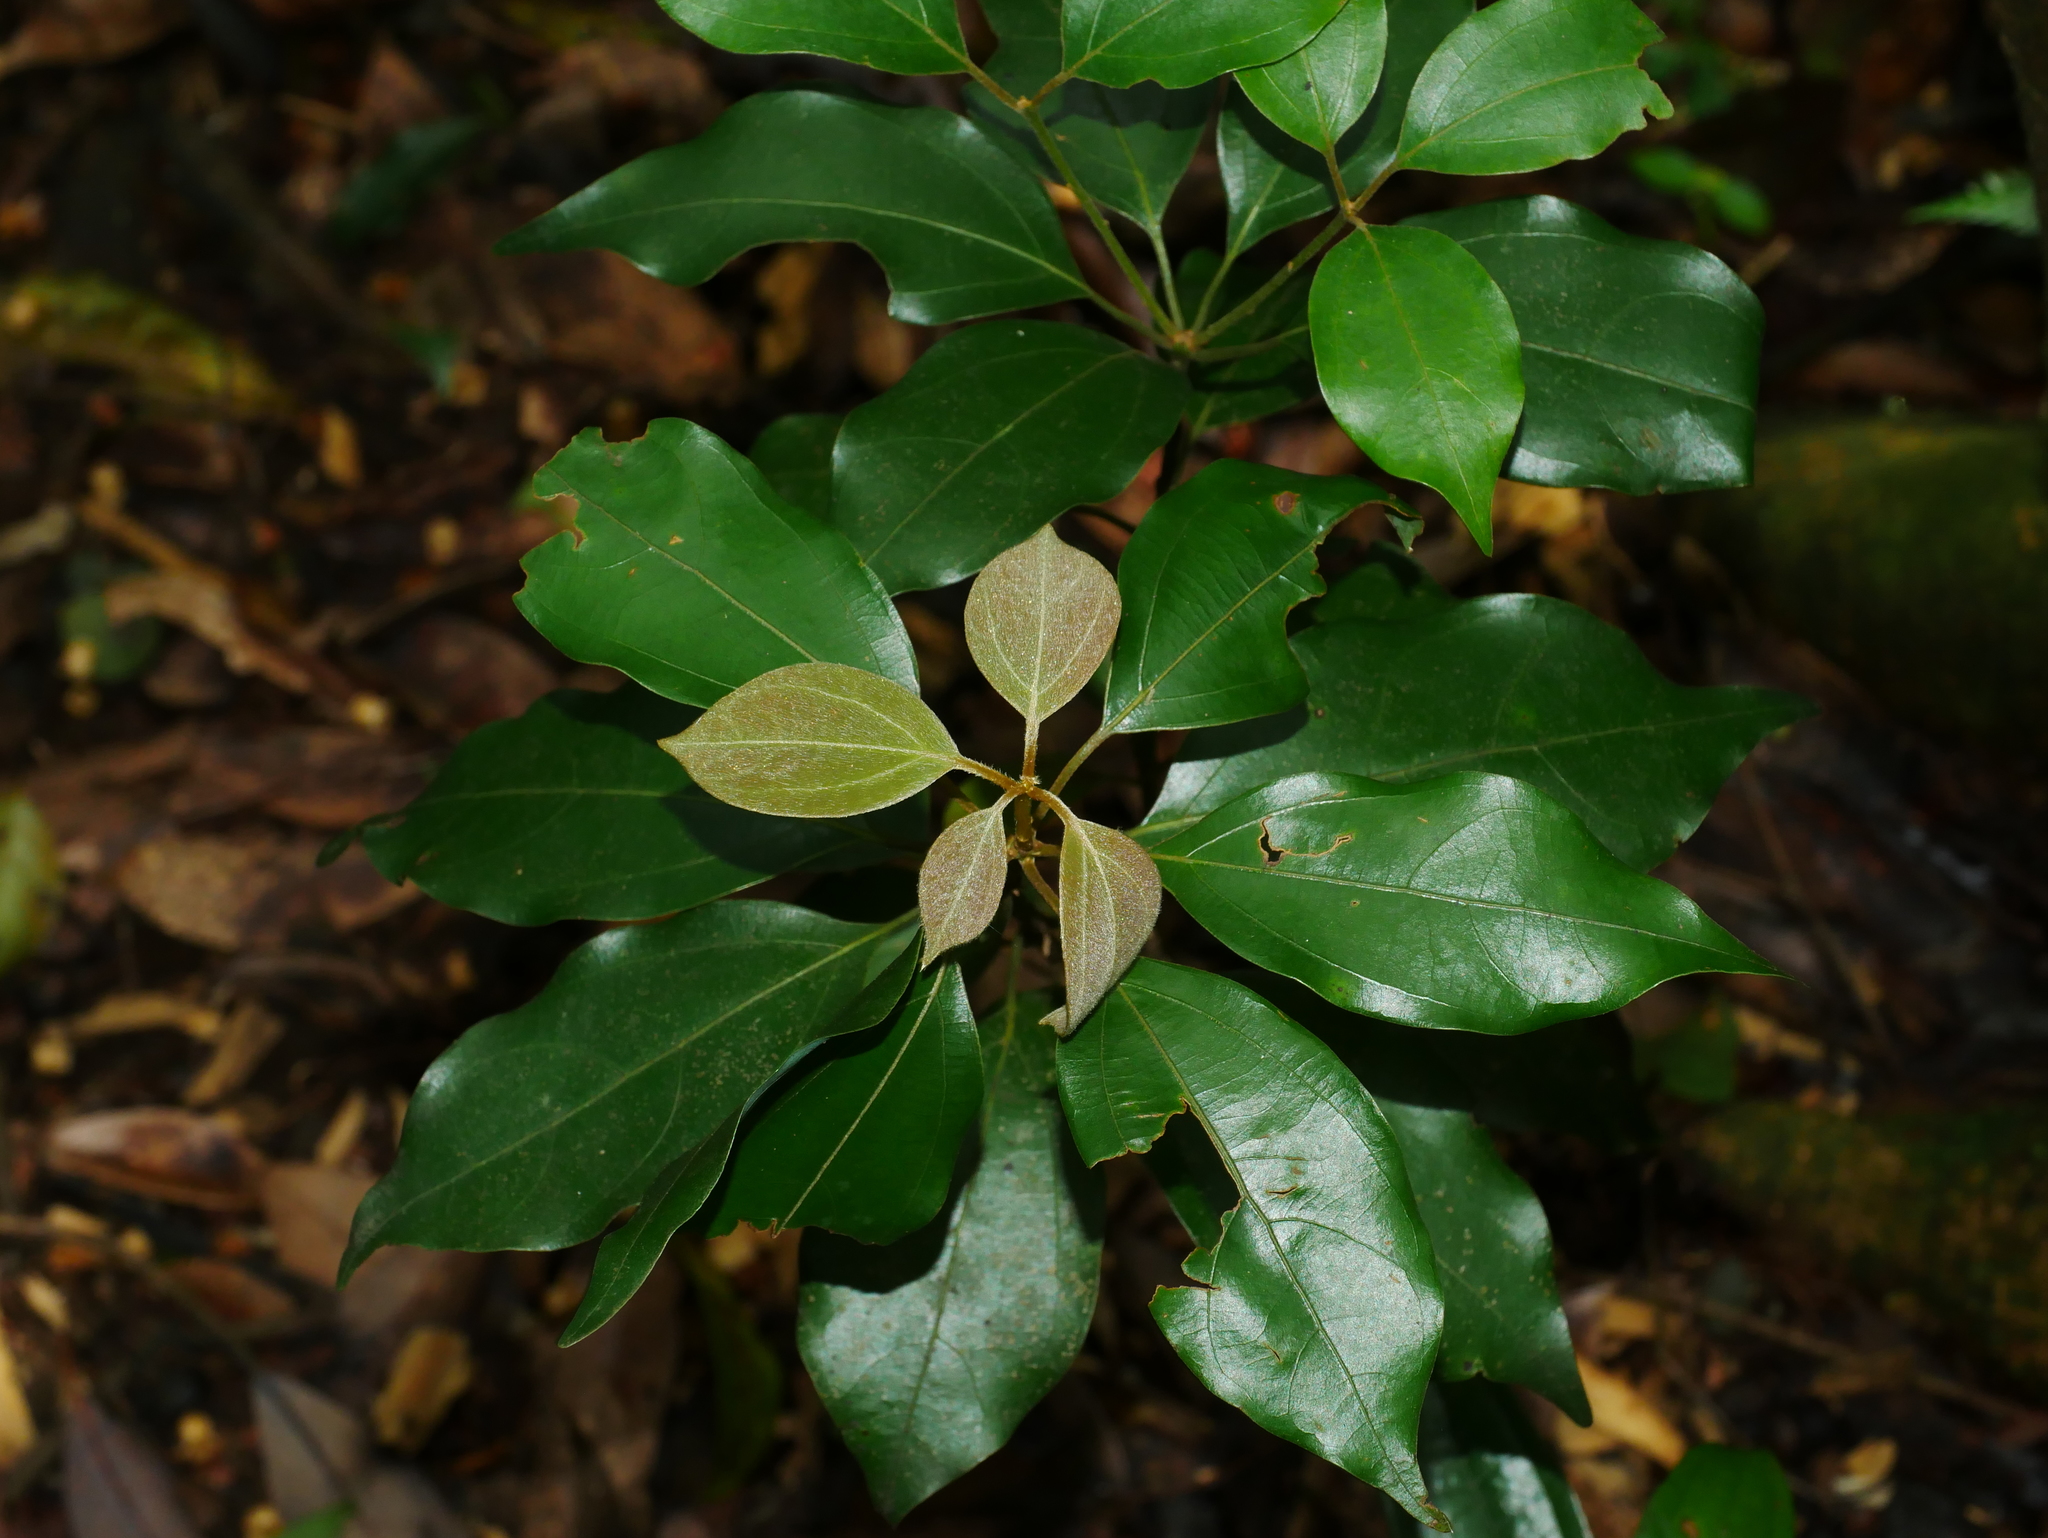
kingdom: Plantae
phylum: Tracheophyta
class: Magnoliopsida
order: Laurales
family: Lauraceae
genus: Neolitsea
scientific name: Neolitsea sericea
